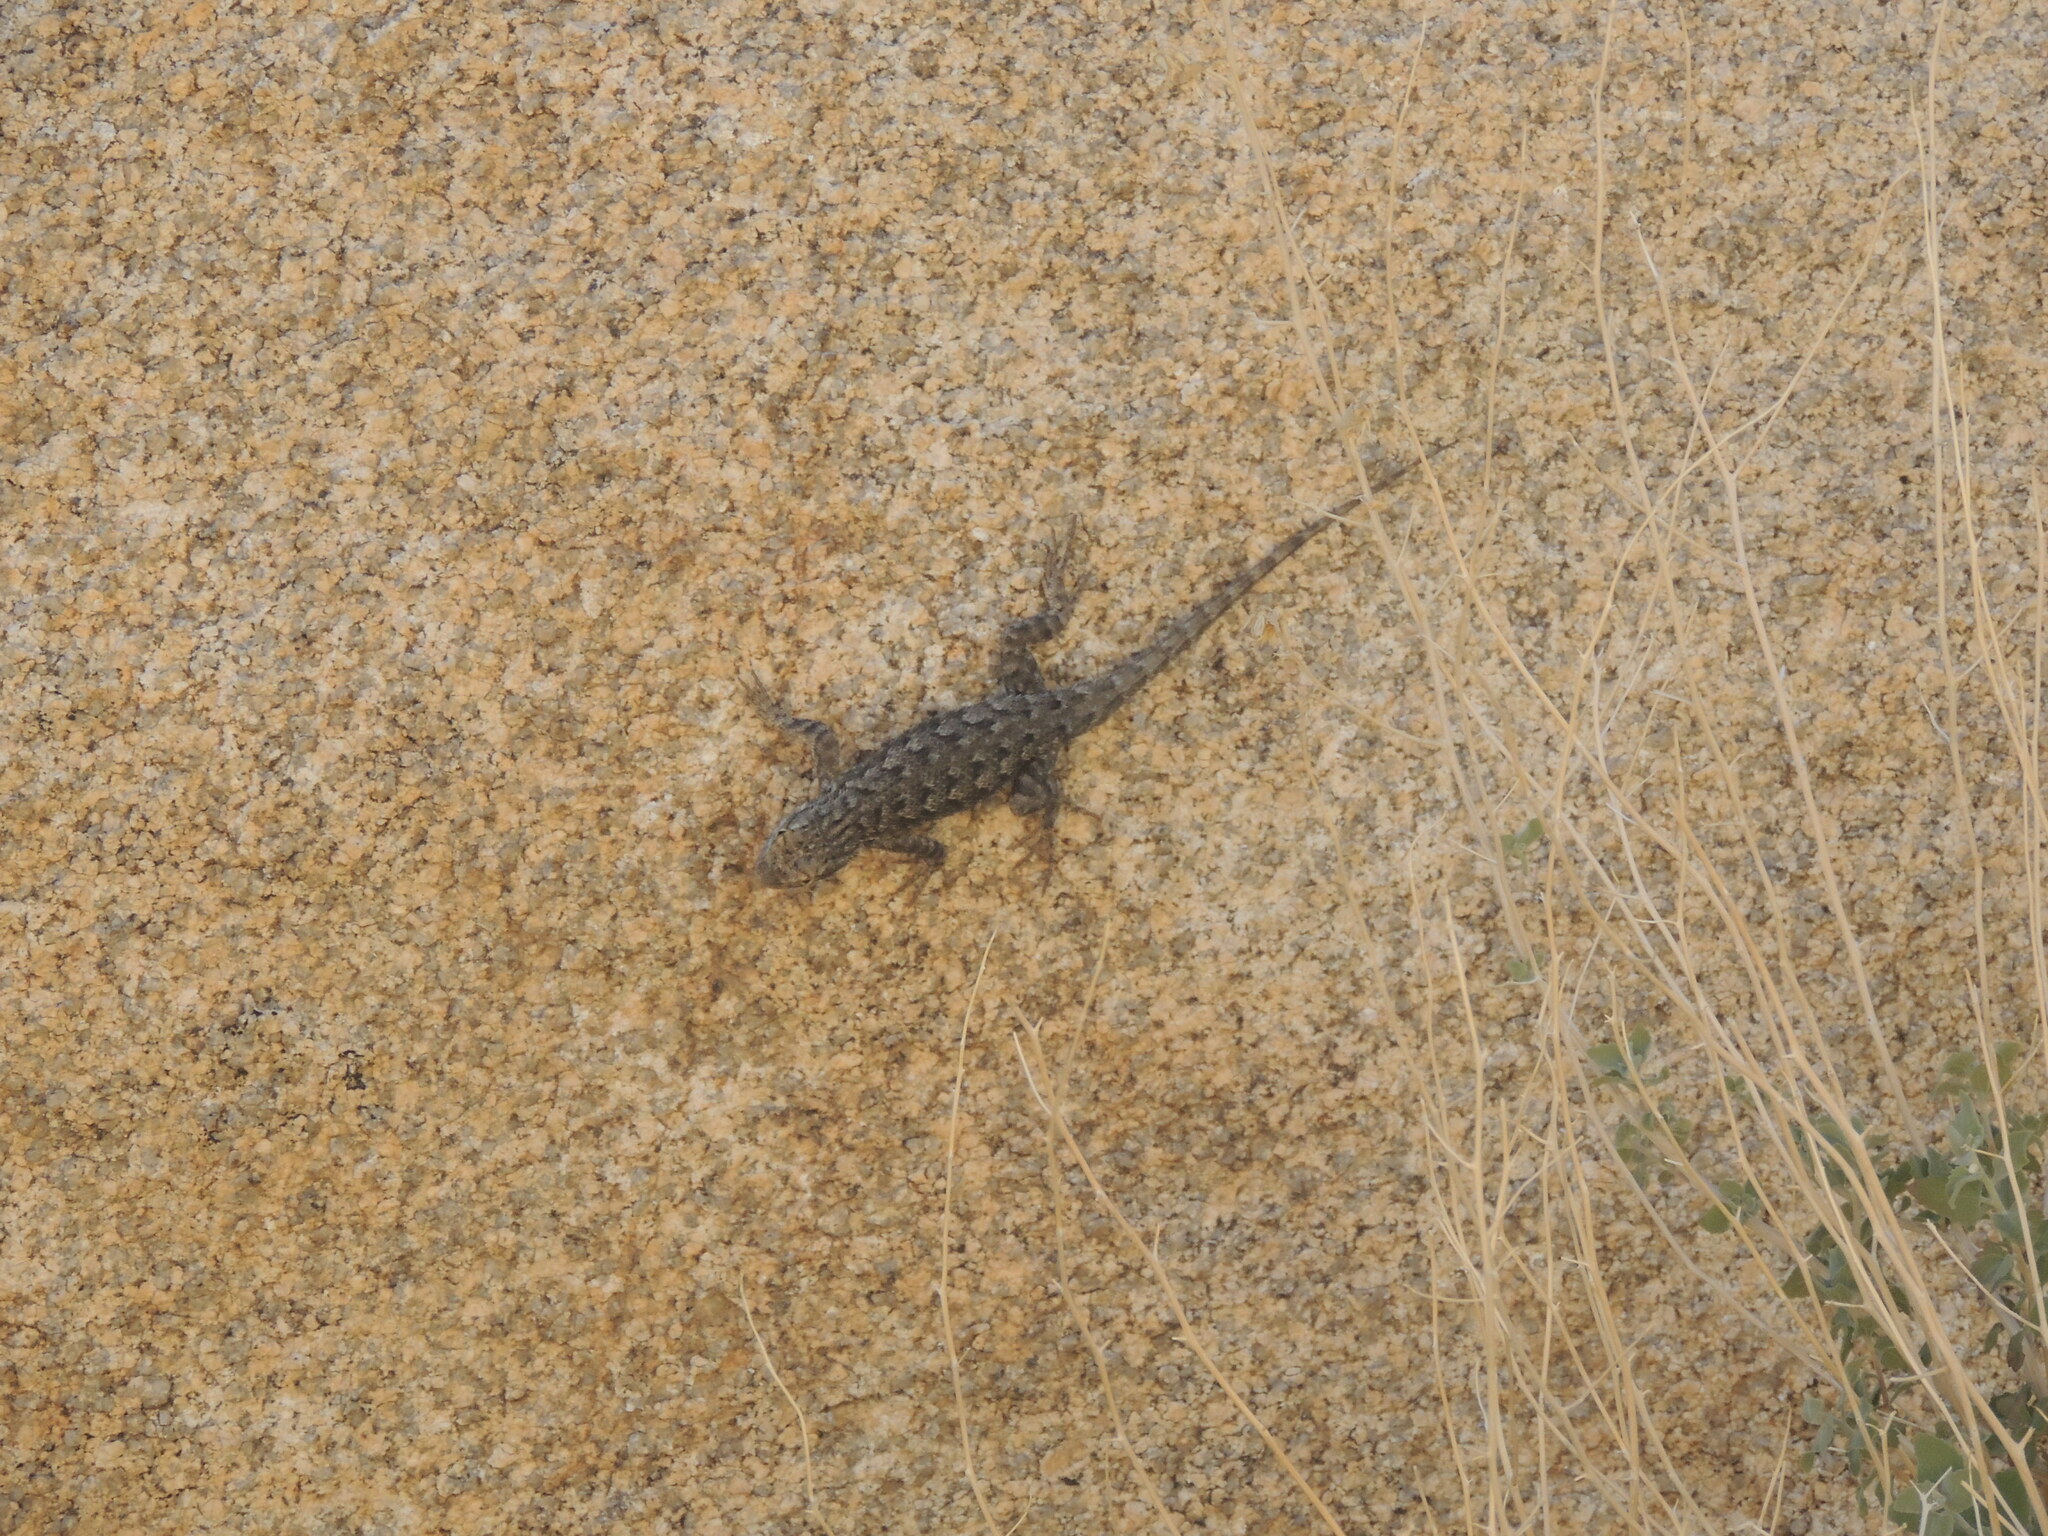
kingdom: Animalia
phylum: Chordata
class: Squamata
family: Phrynosomatidae
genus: Sceloporus
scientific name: Sceloporus occidentalis
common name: Western fence lizard
